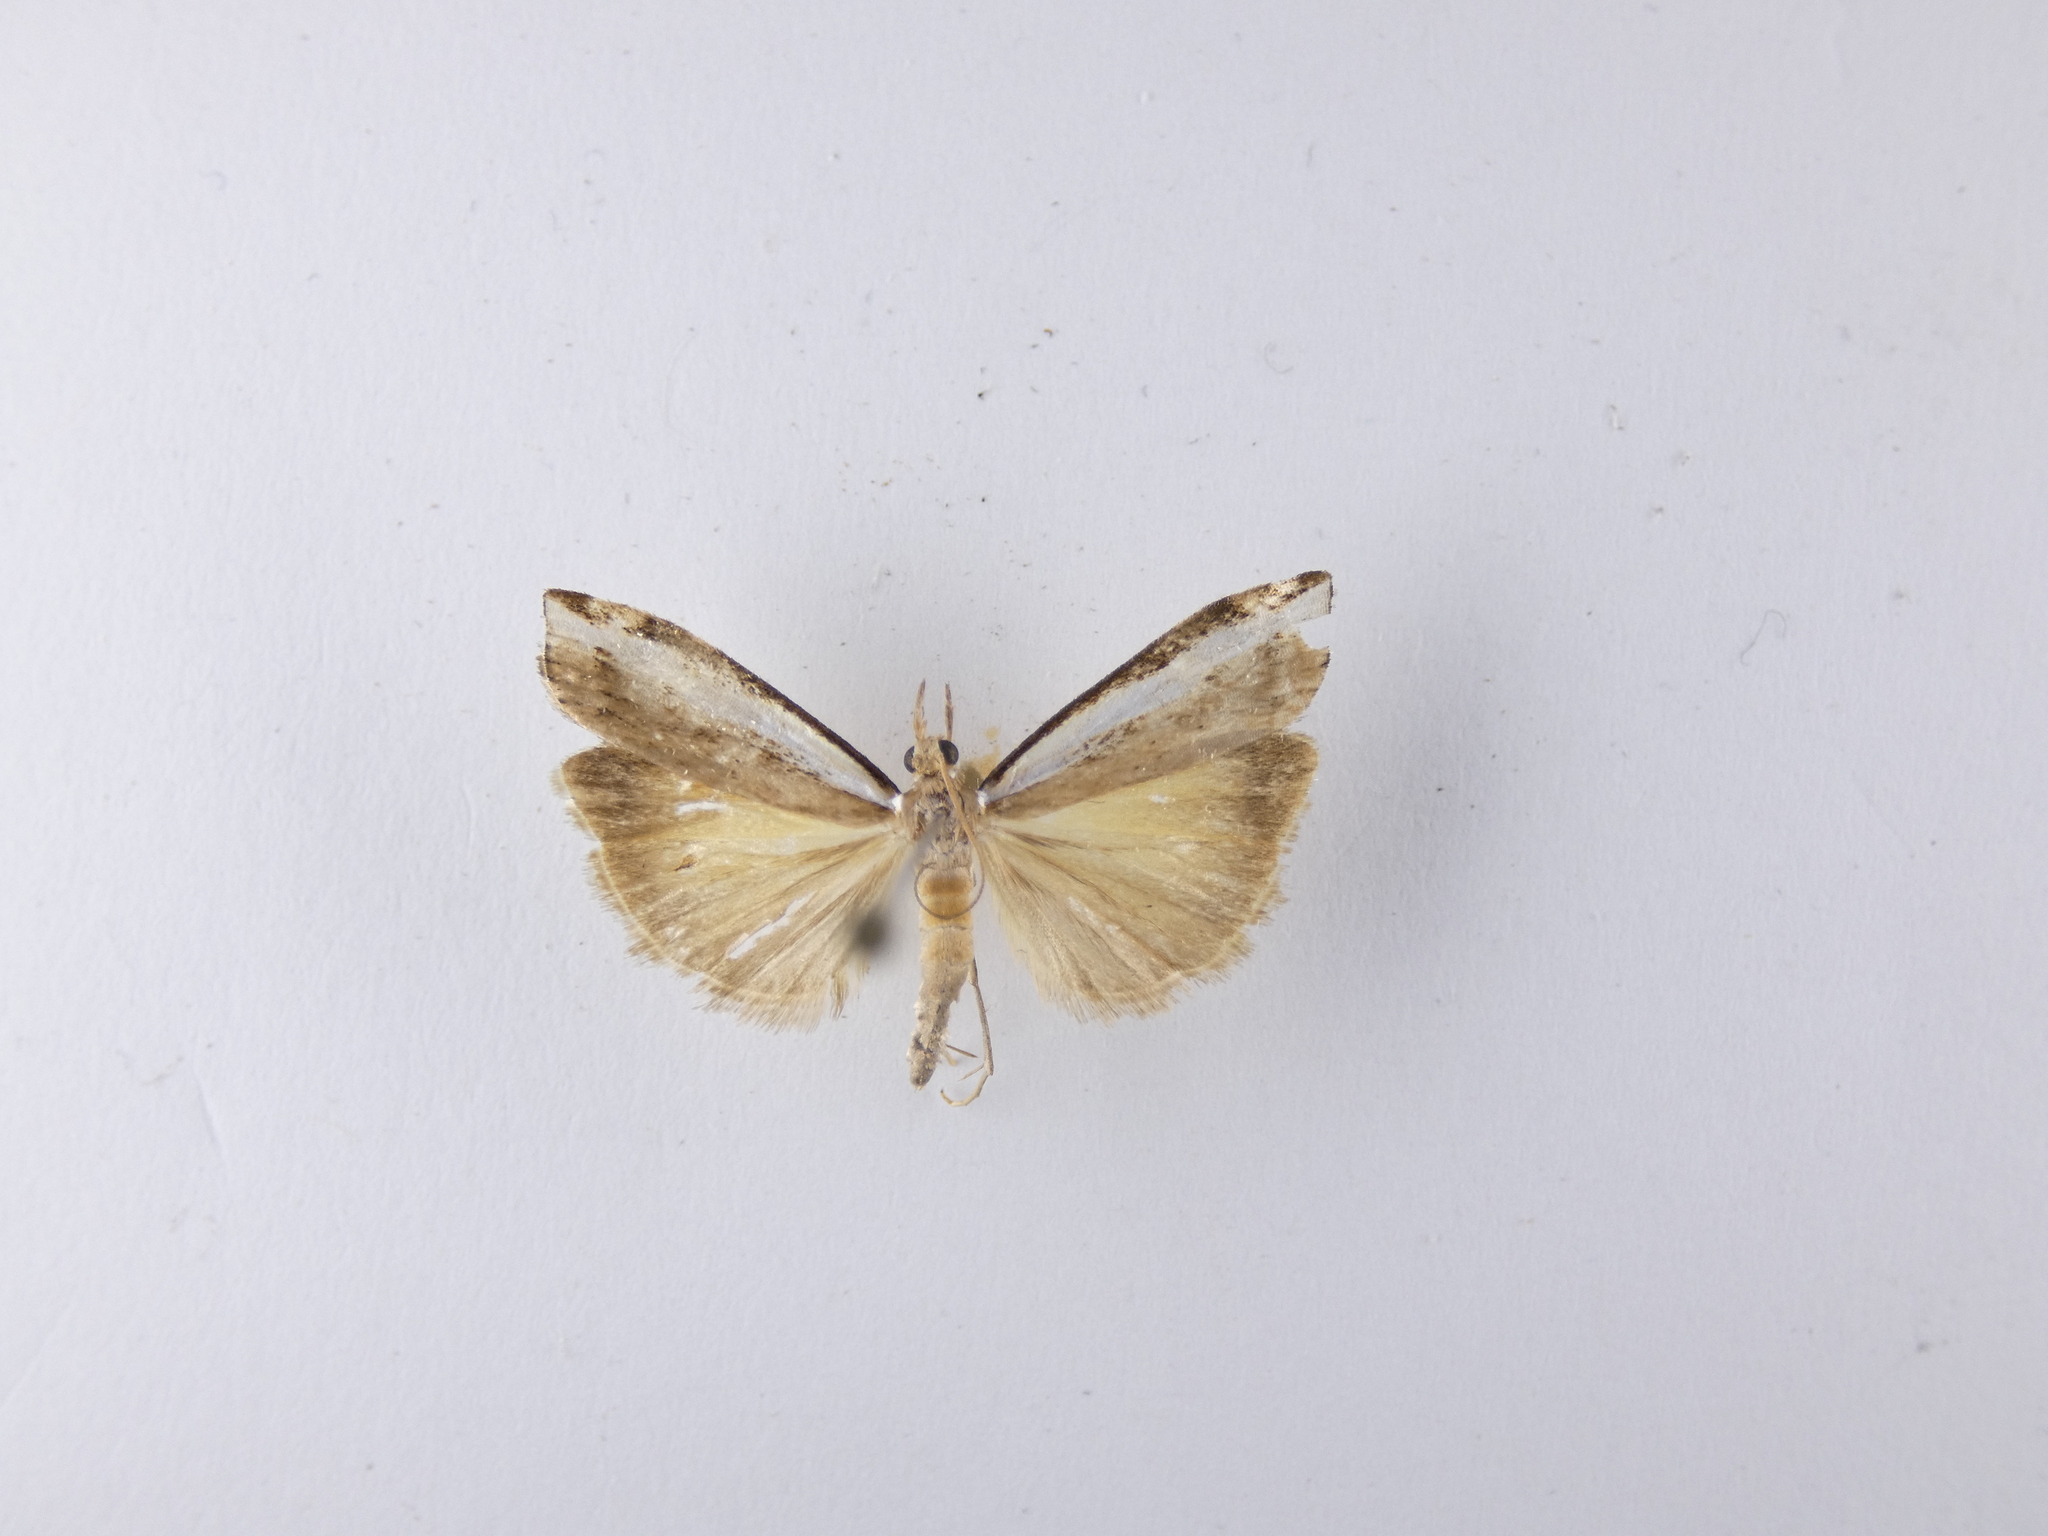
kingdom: Animalia
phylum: Arthropoda
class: Insecta
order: Lepidoptera
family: Crambidae
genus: Orocrambus
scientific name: Orocrambus flexuosellus
